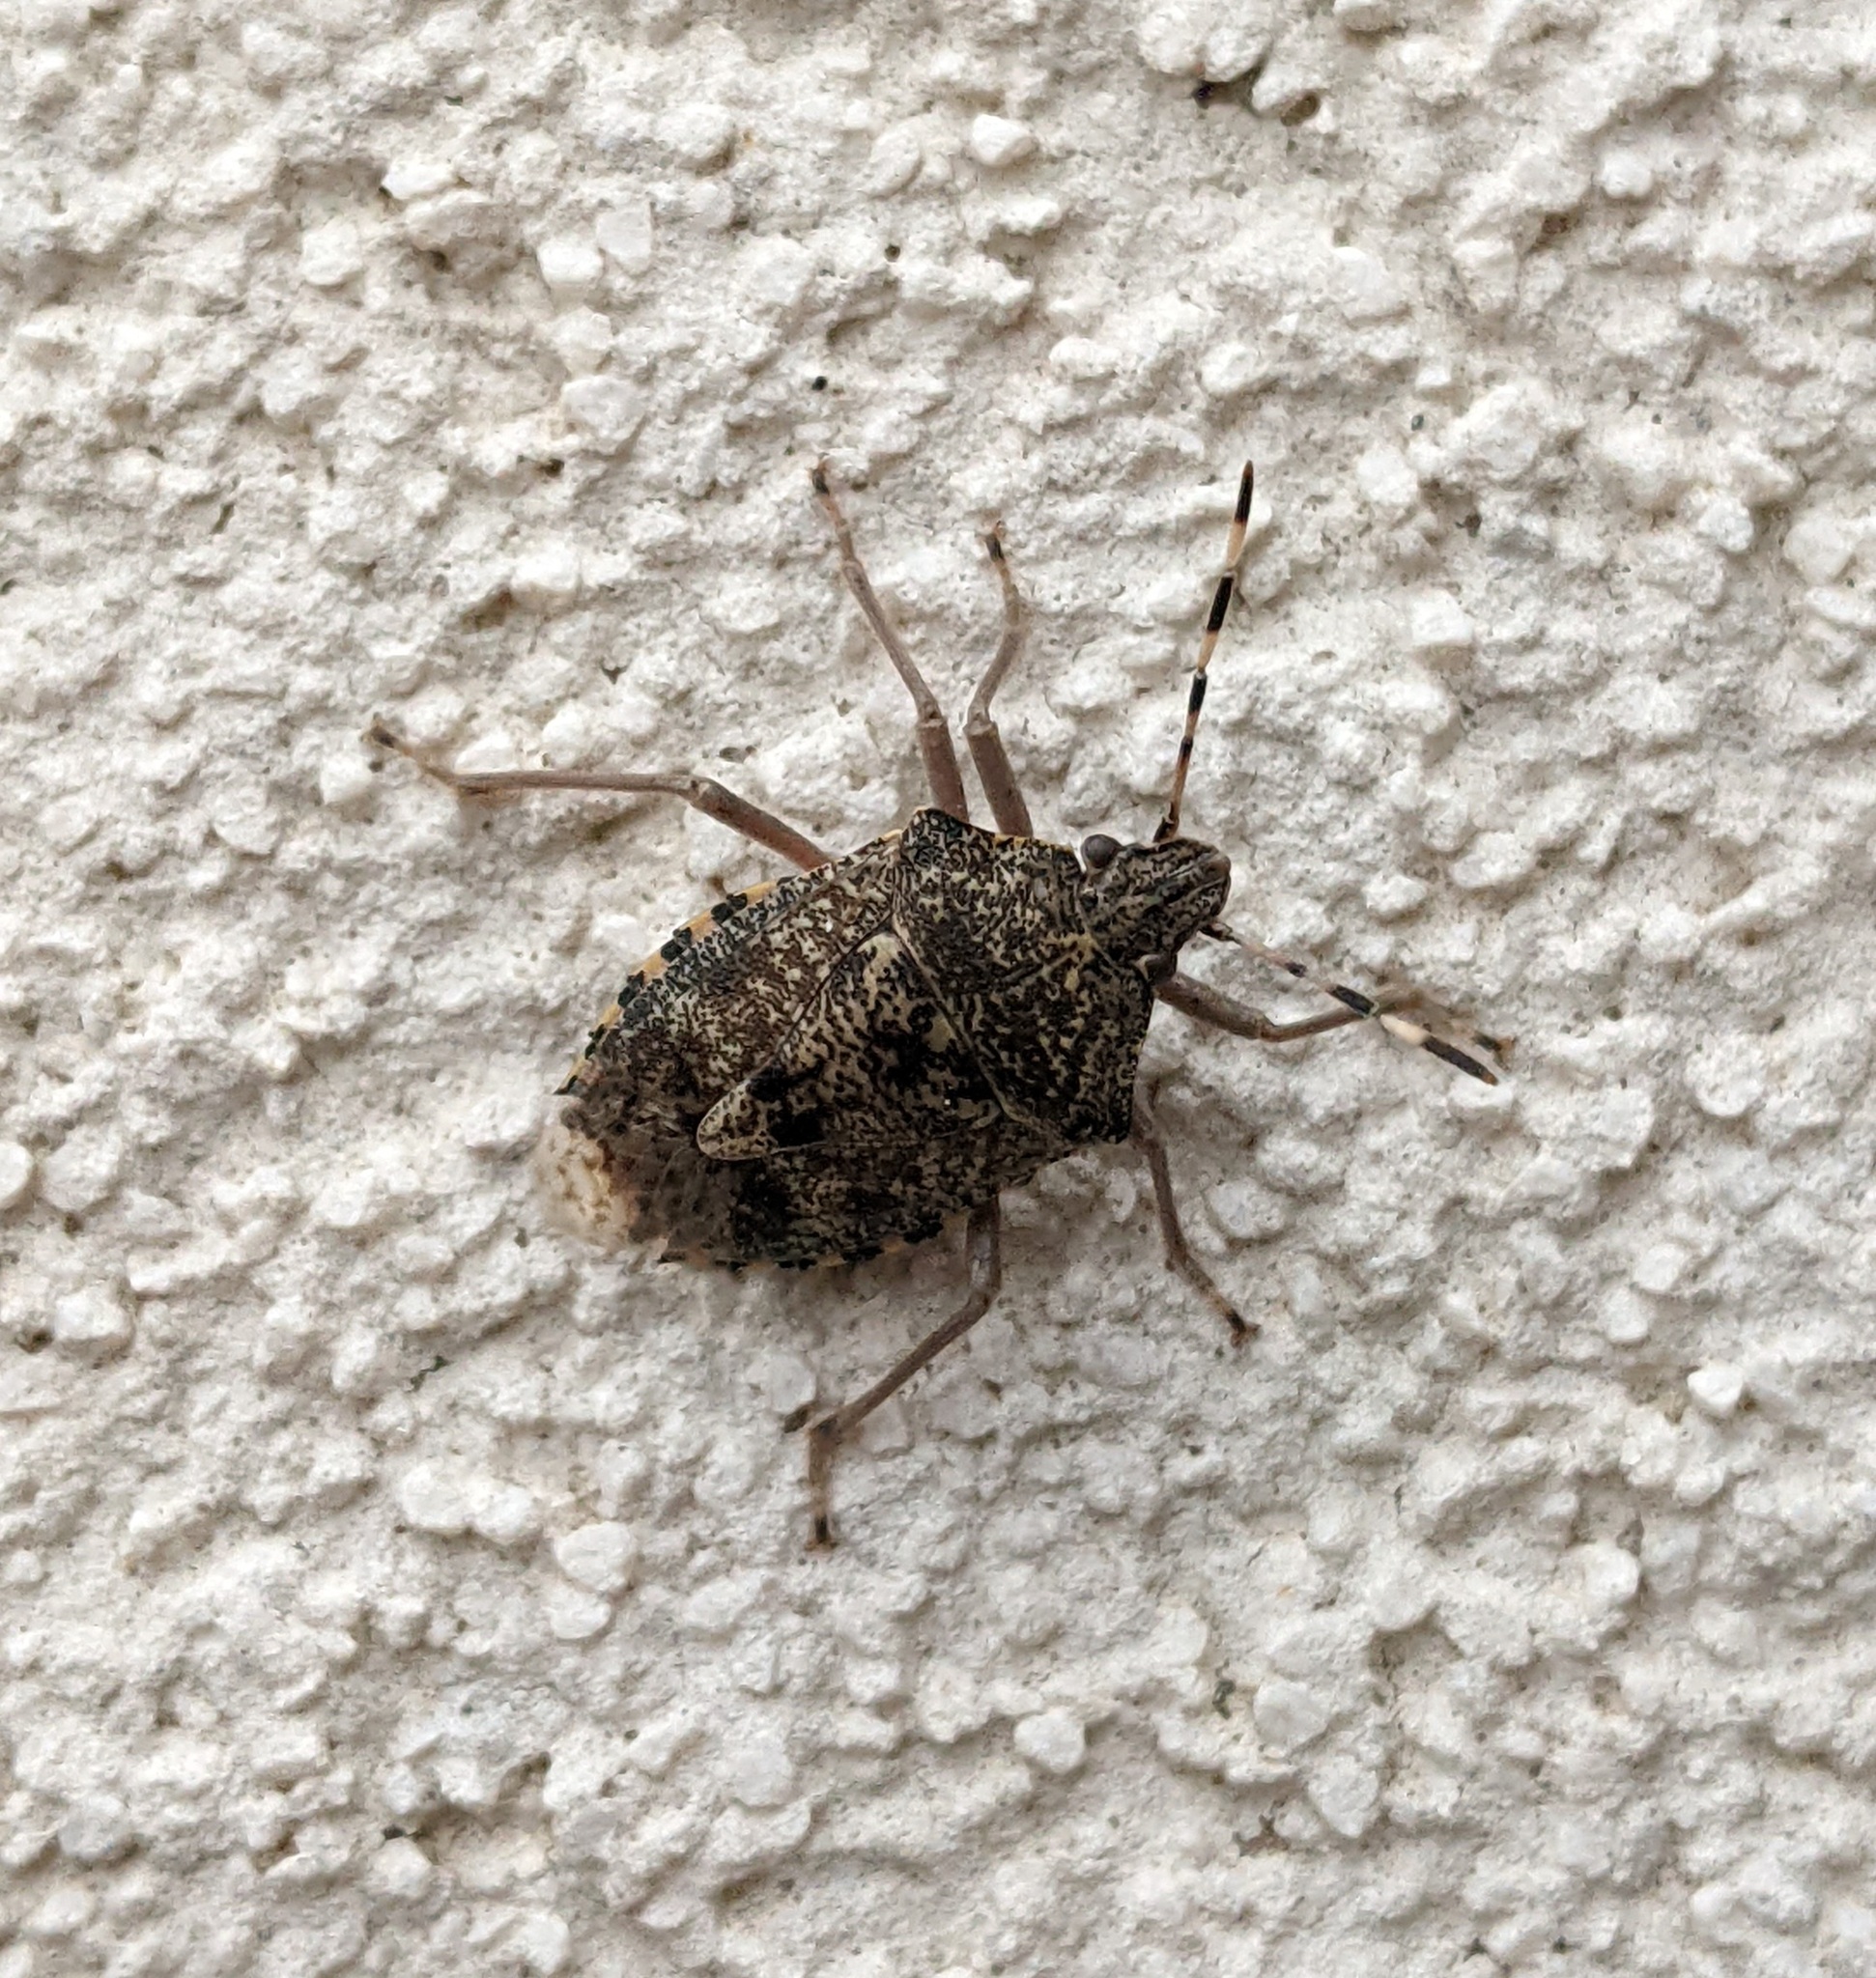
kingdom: Animalia
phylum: Arthropoda
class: Insecta
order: Hemiptera
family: Pentatomidae
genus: Rhaphigaster
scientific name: Rhaphigaster nebulosa
